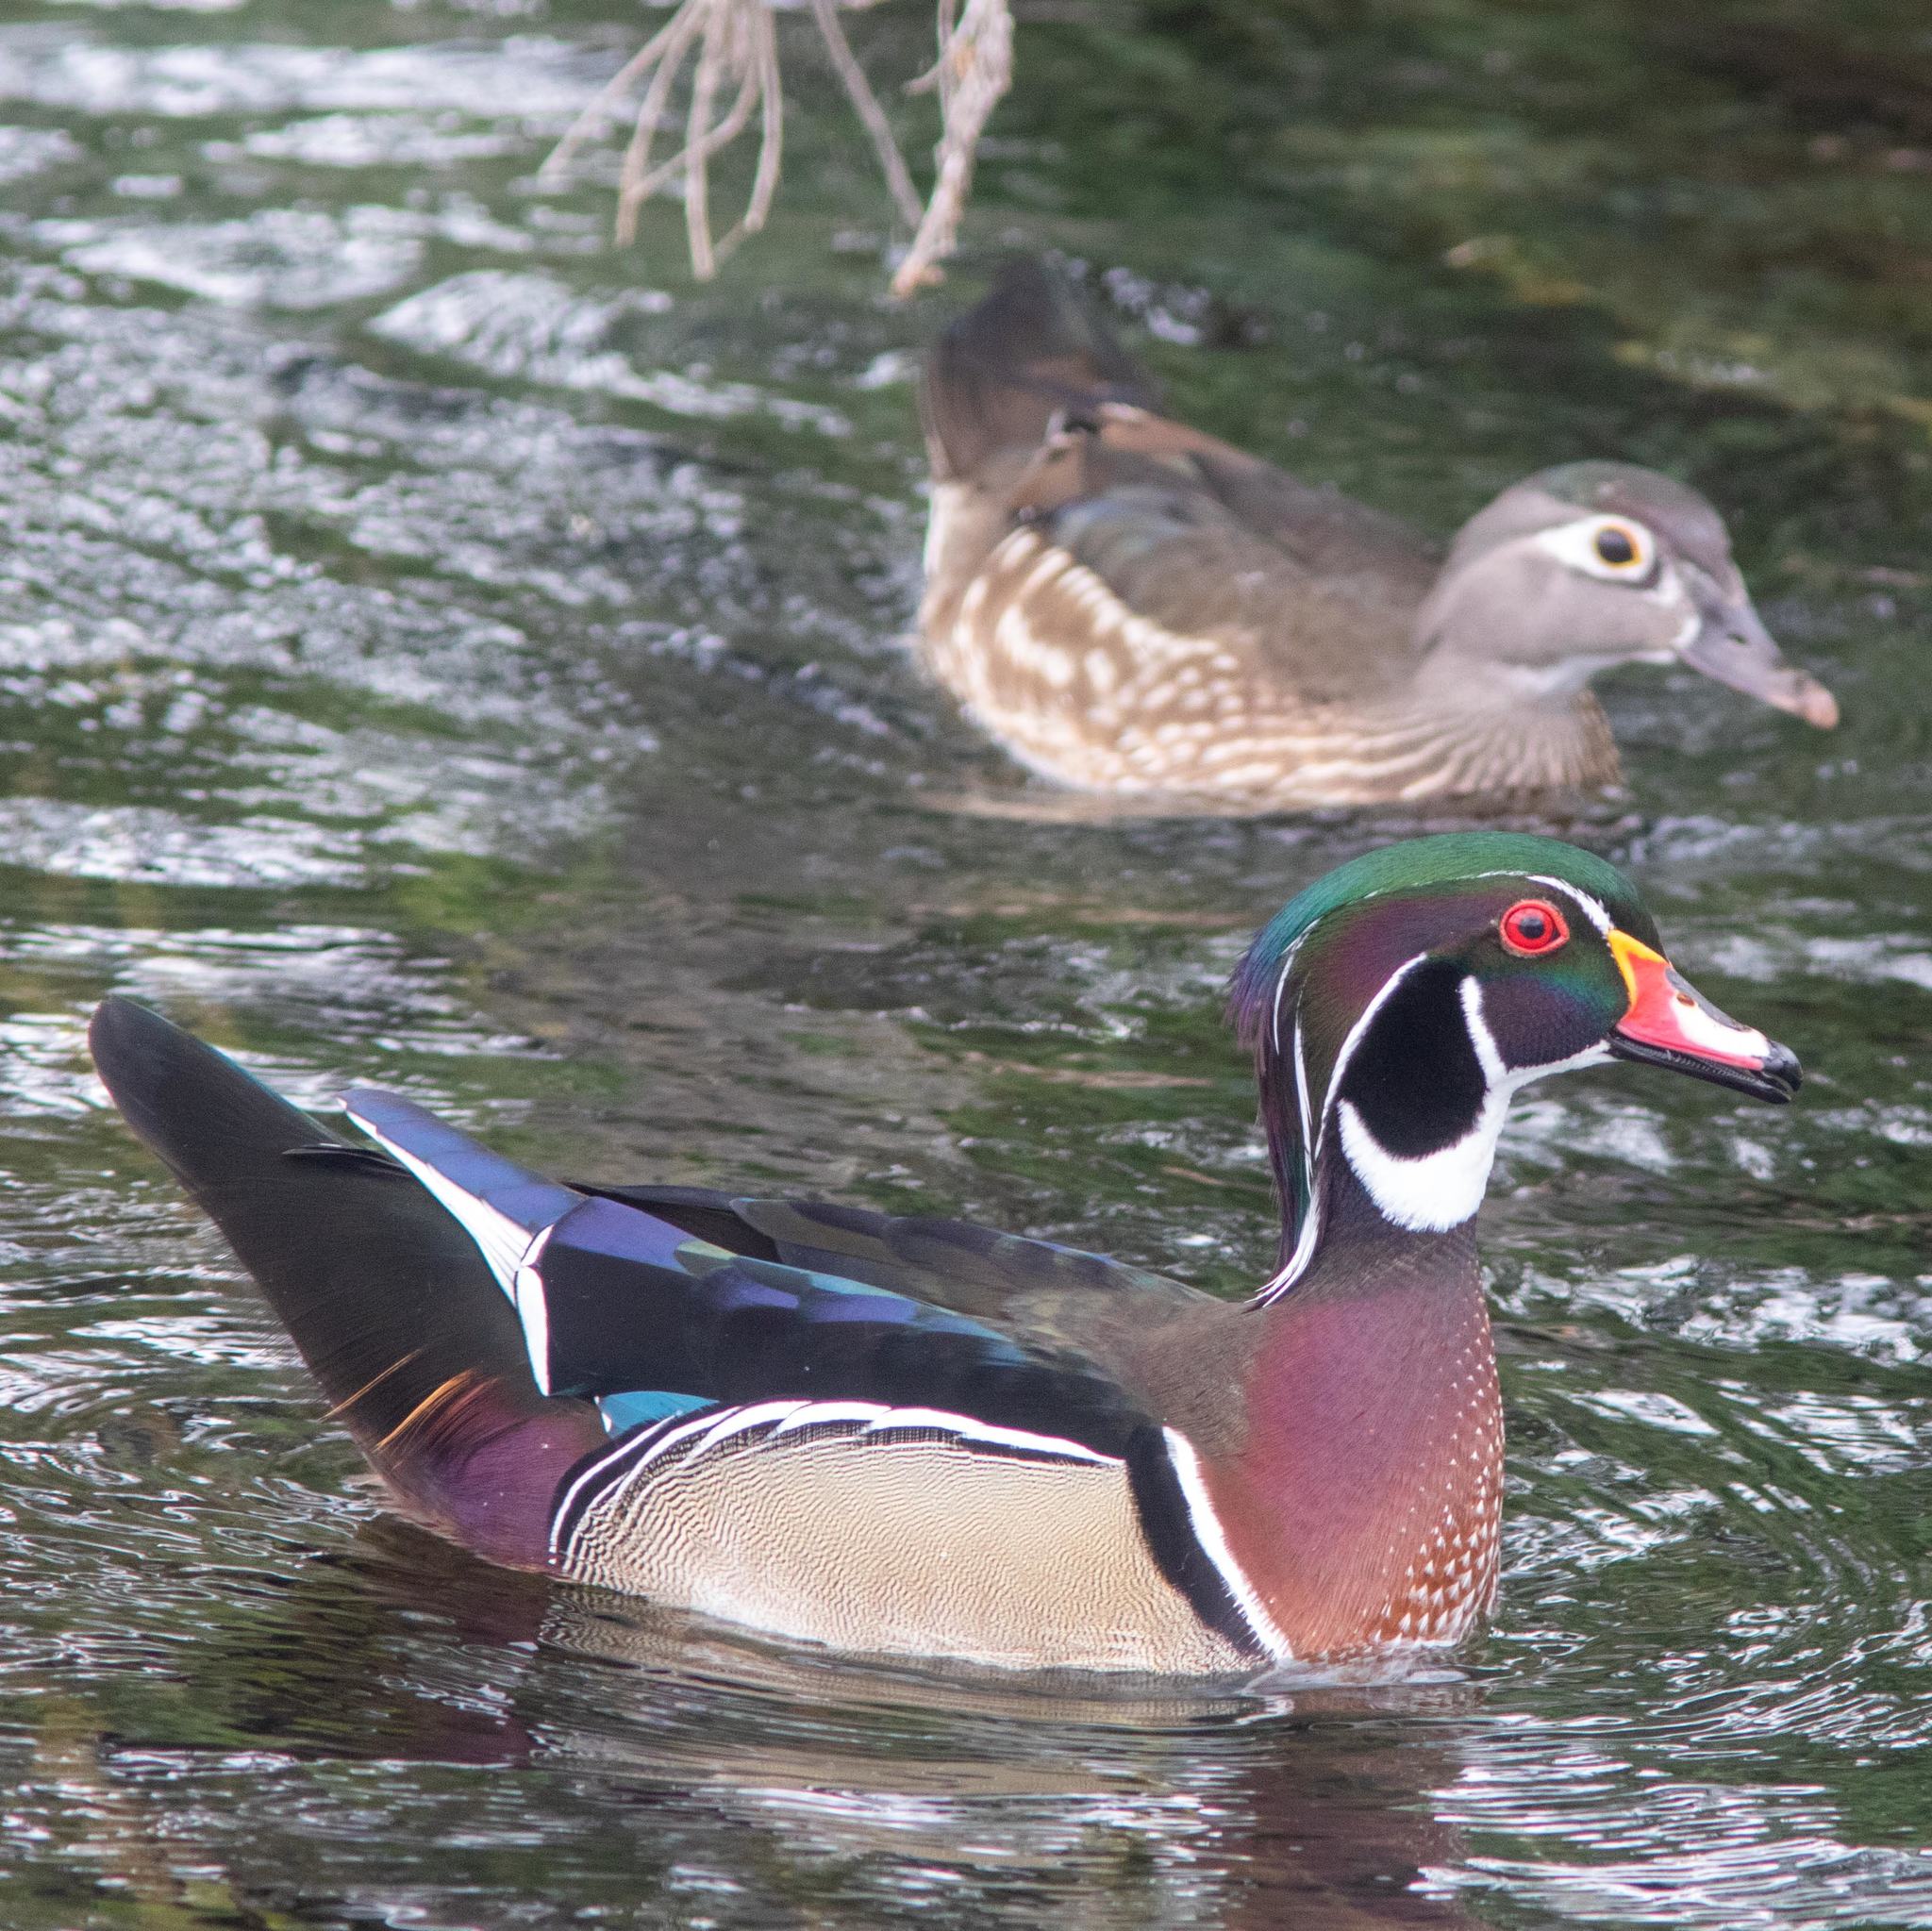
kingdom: Animalia
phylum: Chordata
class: Aves
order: Anseriformes
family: Anatidae
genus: Aix
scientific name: Aix sponsa
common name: Wood duck
